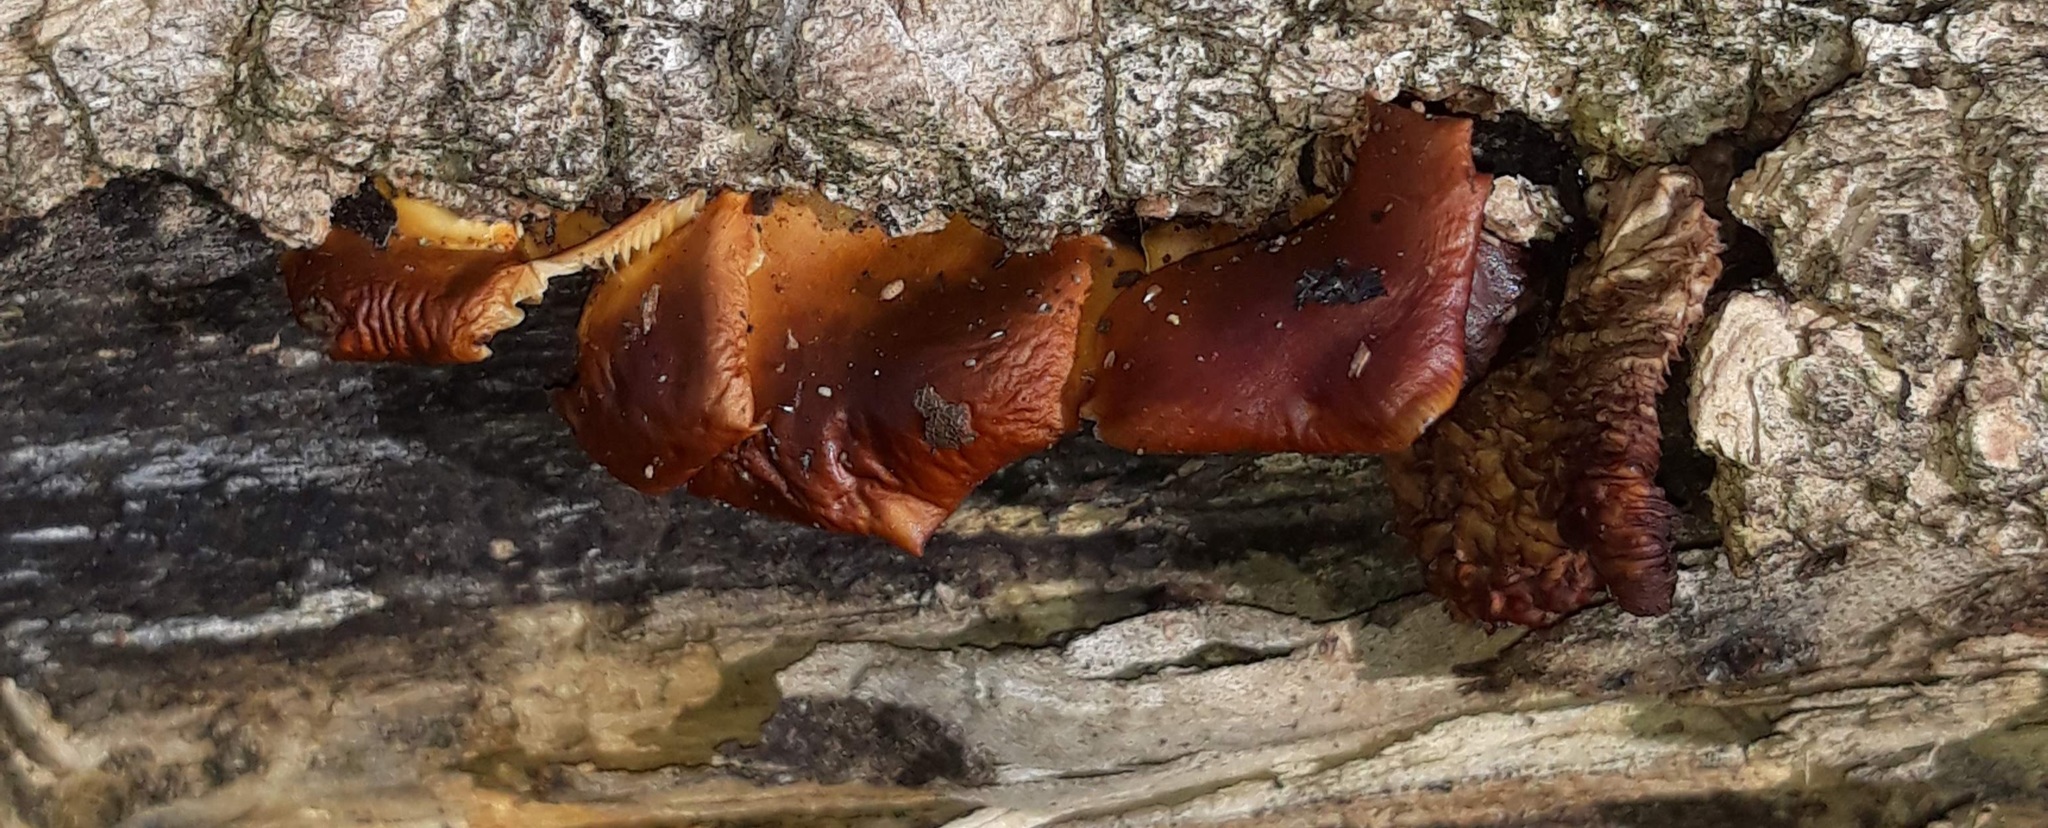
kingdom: Fungi
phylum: Basidiomycota
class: Agaricomycetes
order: Agaricales
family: Physalacriaceae
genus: Flammulina
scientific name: Flammulina velutipes
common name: Velvet shank
